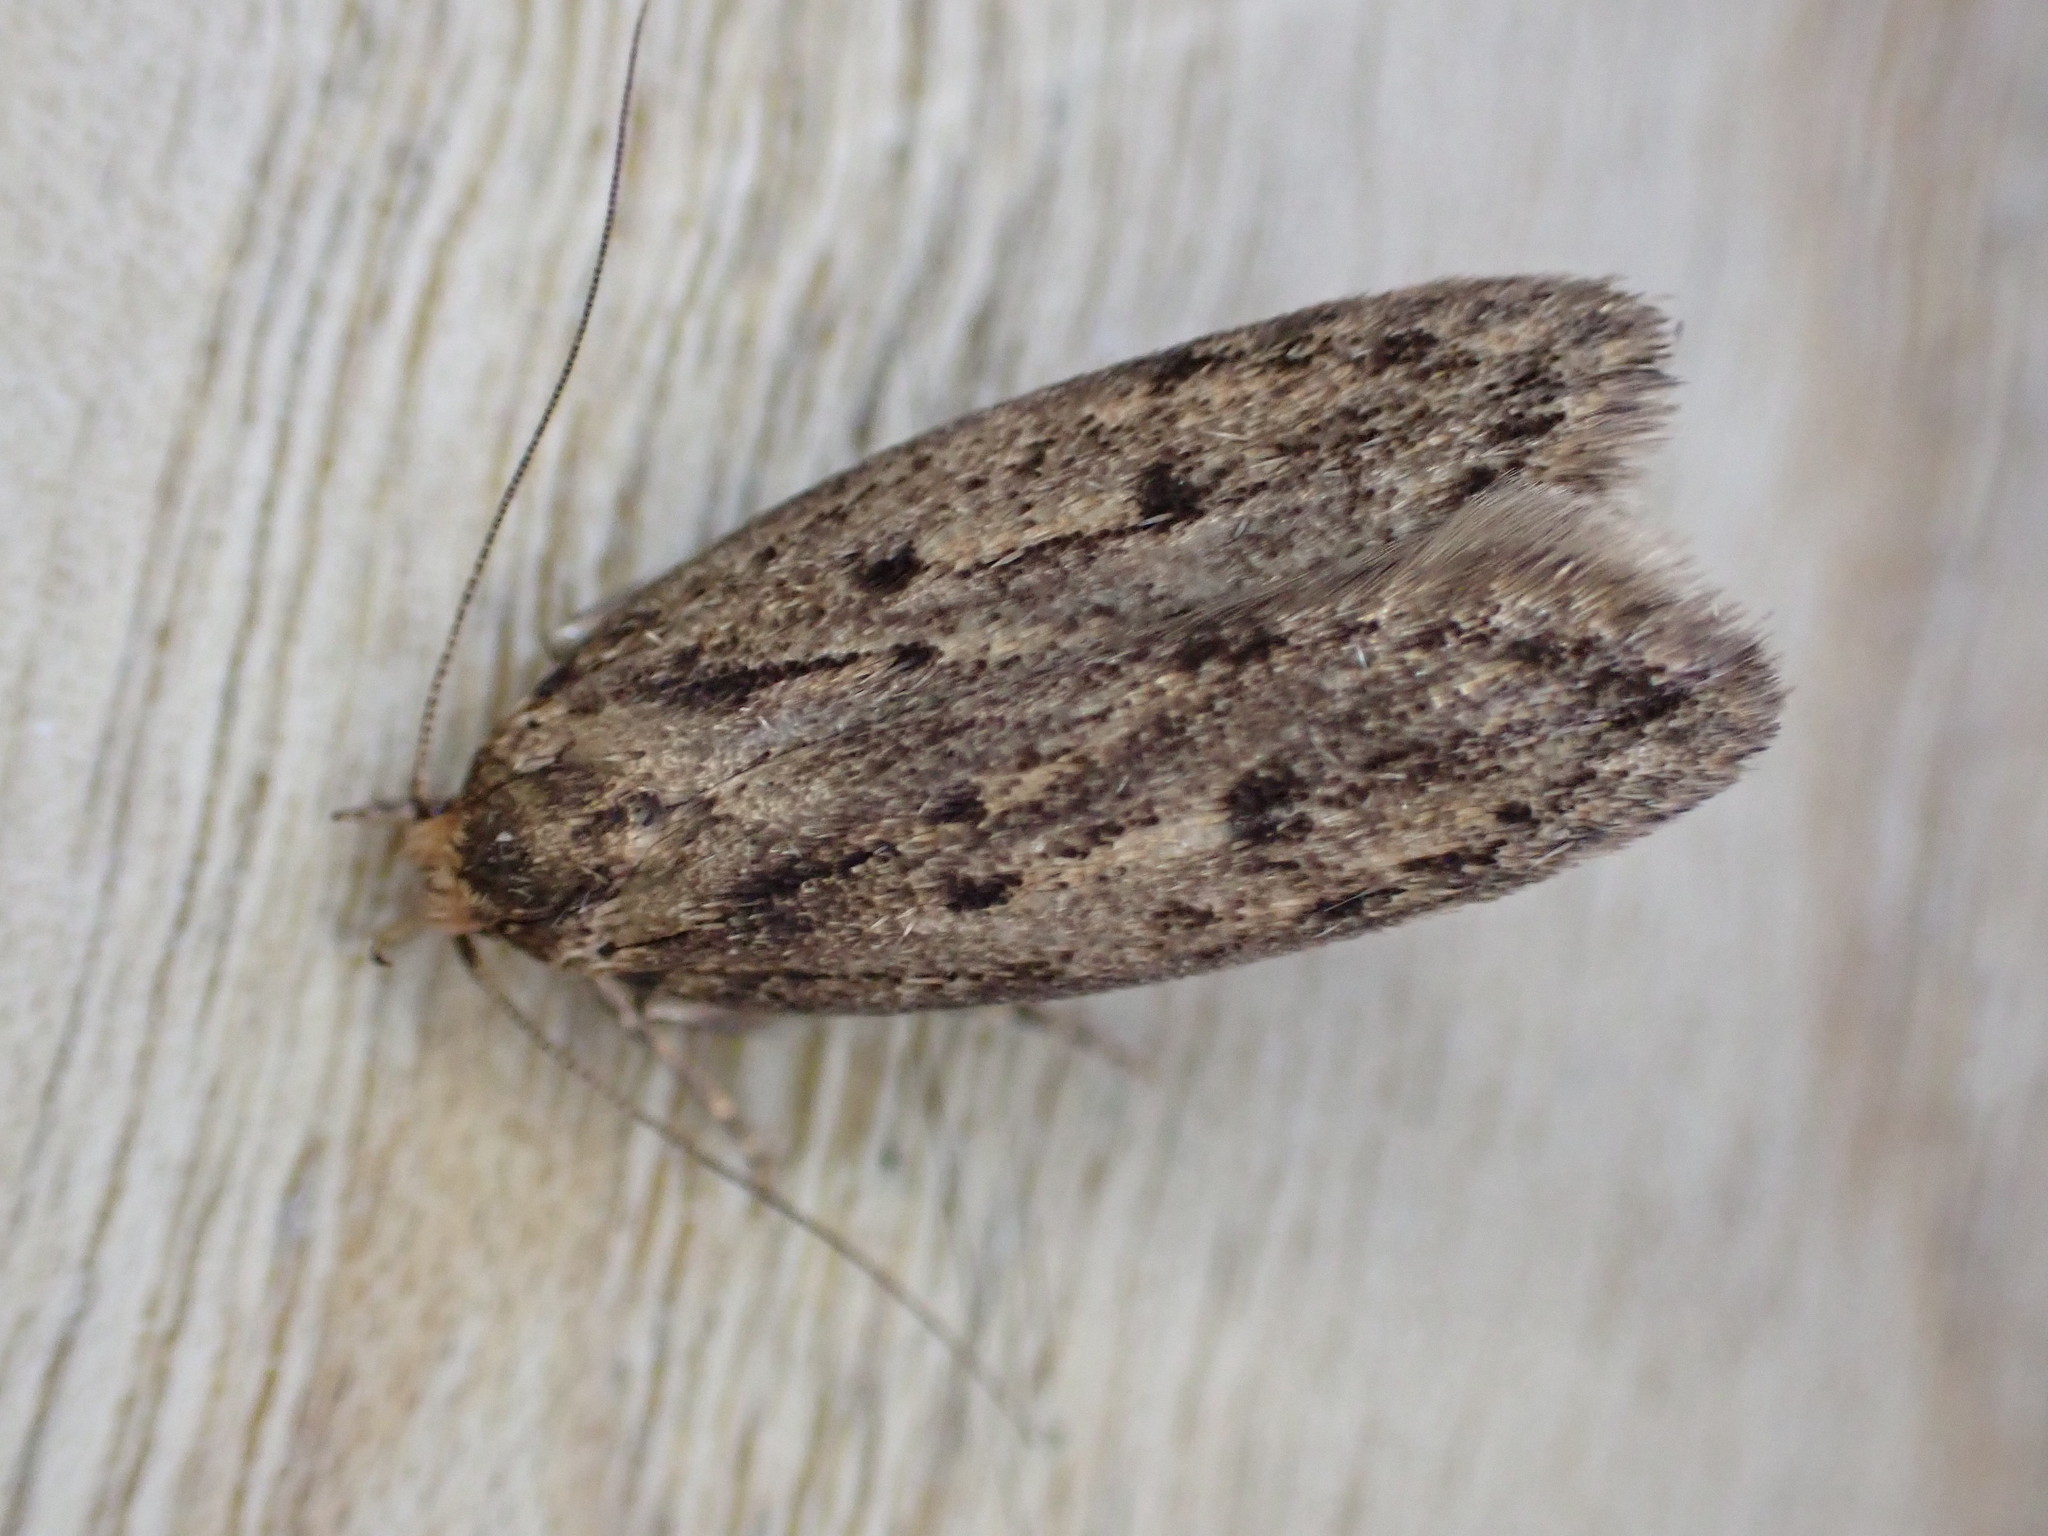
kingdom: Animalia
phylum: Arthropoda
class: Insecta
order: Lepidoptera
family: Oecophoridae
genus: Hofmannophila
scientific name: Hofmannophila pseudospretella
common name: Brown house moth
